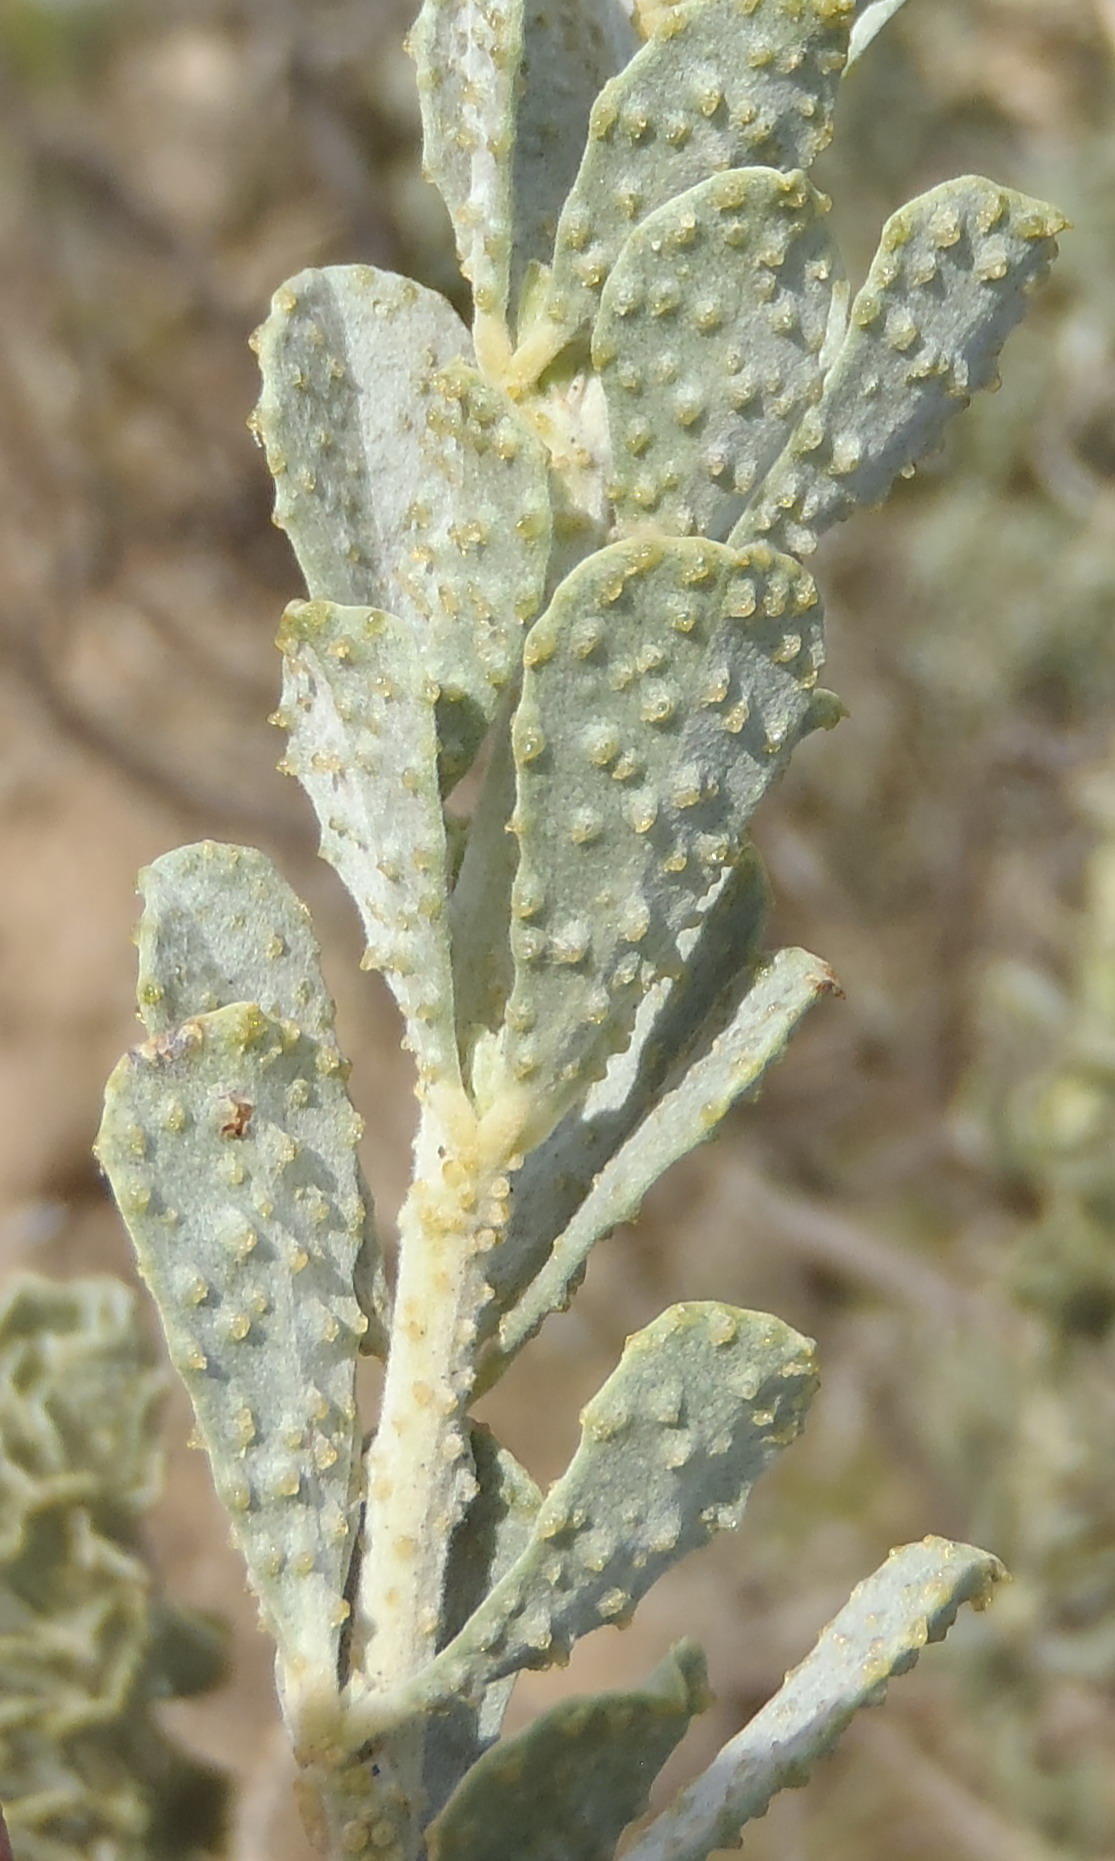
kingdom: Plantae
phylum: Tracheophyta
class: Magnoliopsida
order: Fabales
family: Fabaceae
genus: Psoralea
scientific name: Psoralea velutina
